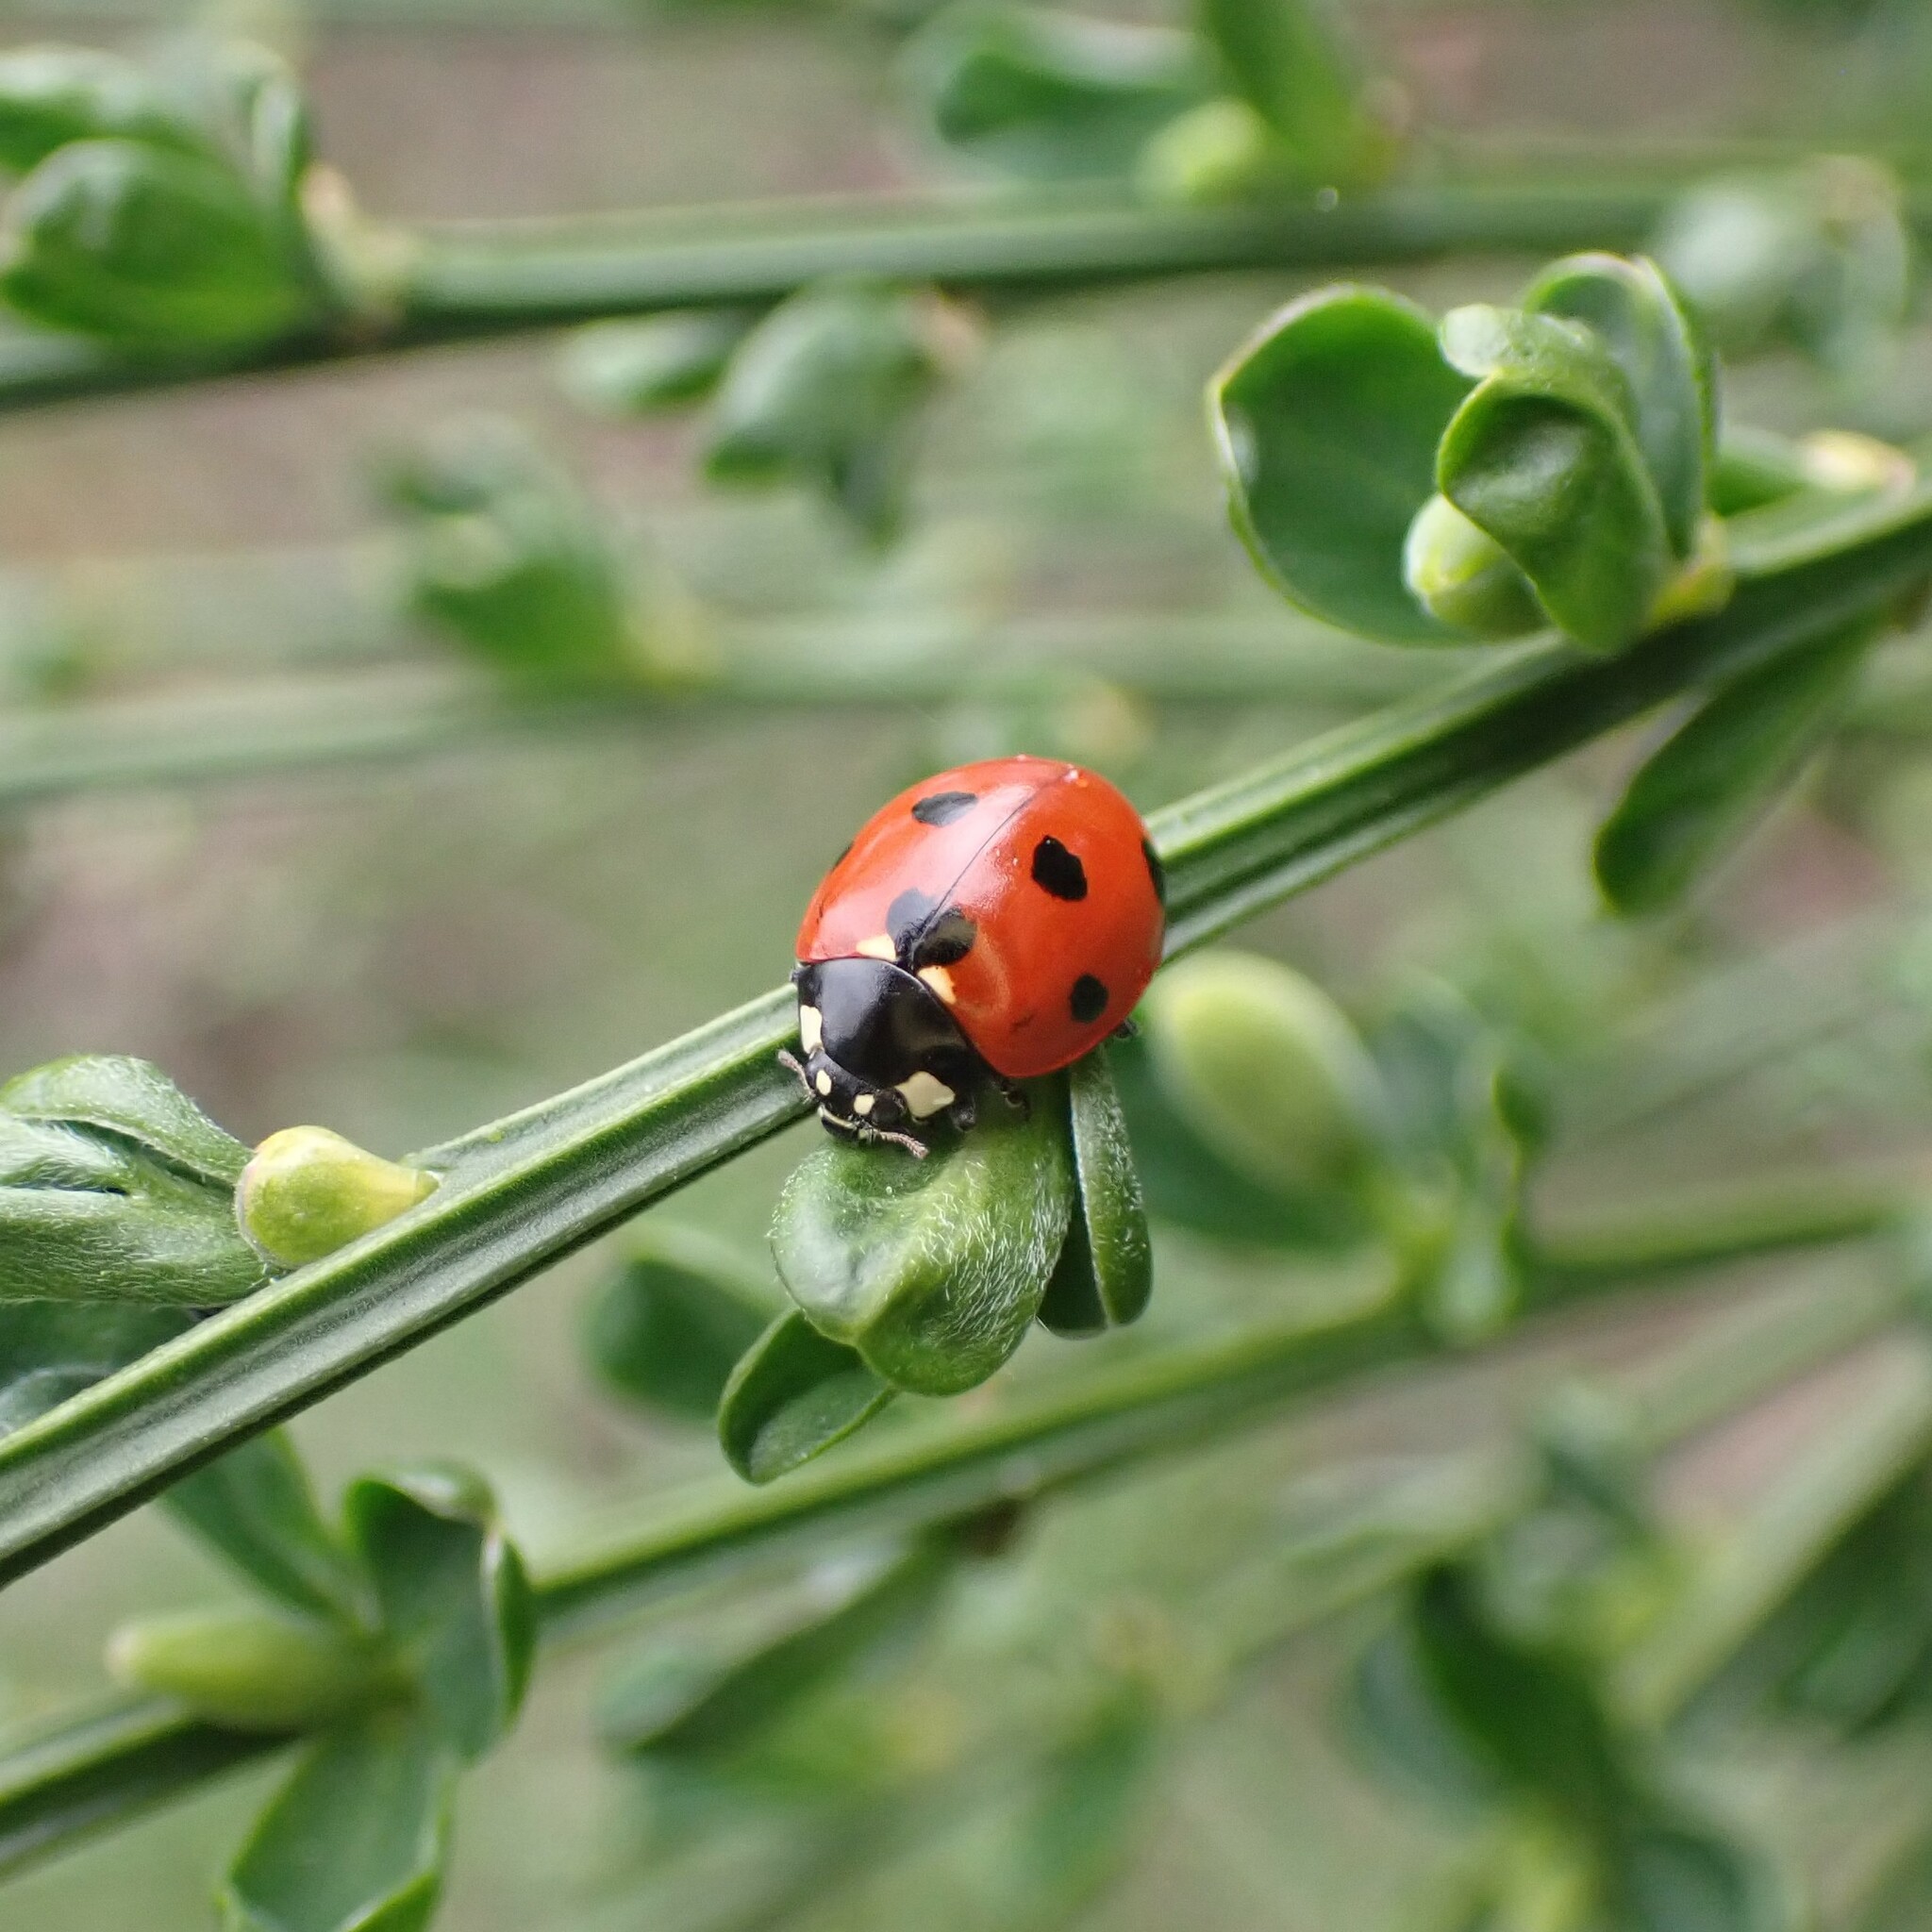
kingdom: Animalia
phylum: Arthropoda
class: Insecta
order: Coleoptera
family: Coccinellidae
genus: Coccinella
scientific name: Coccinella septempunctata
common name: Sevenspotted lady beetle
